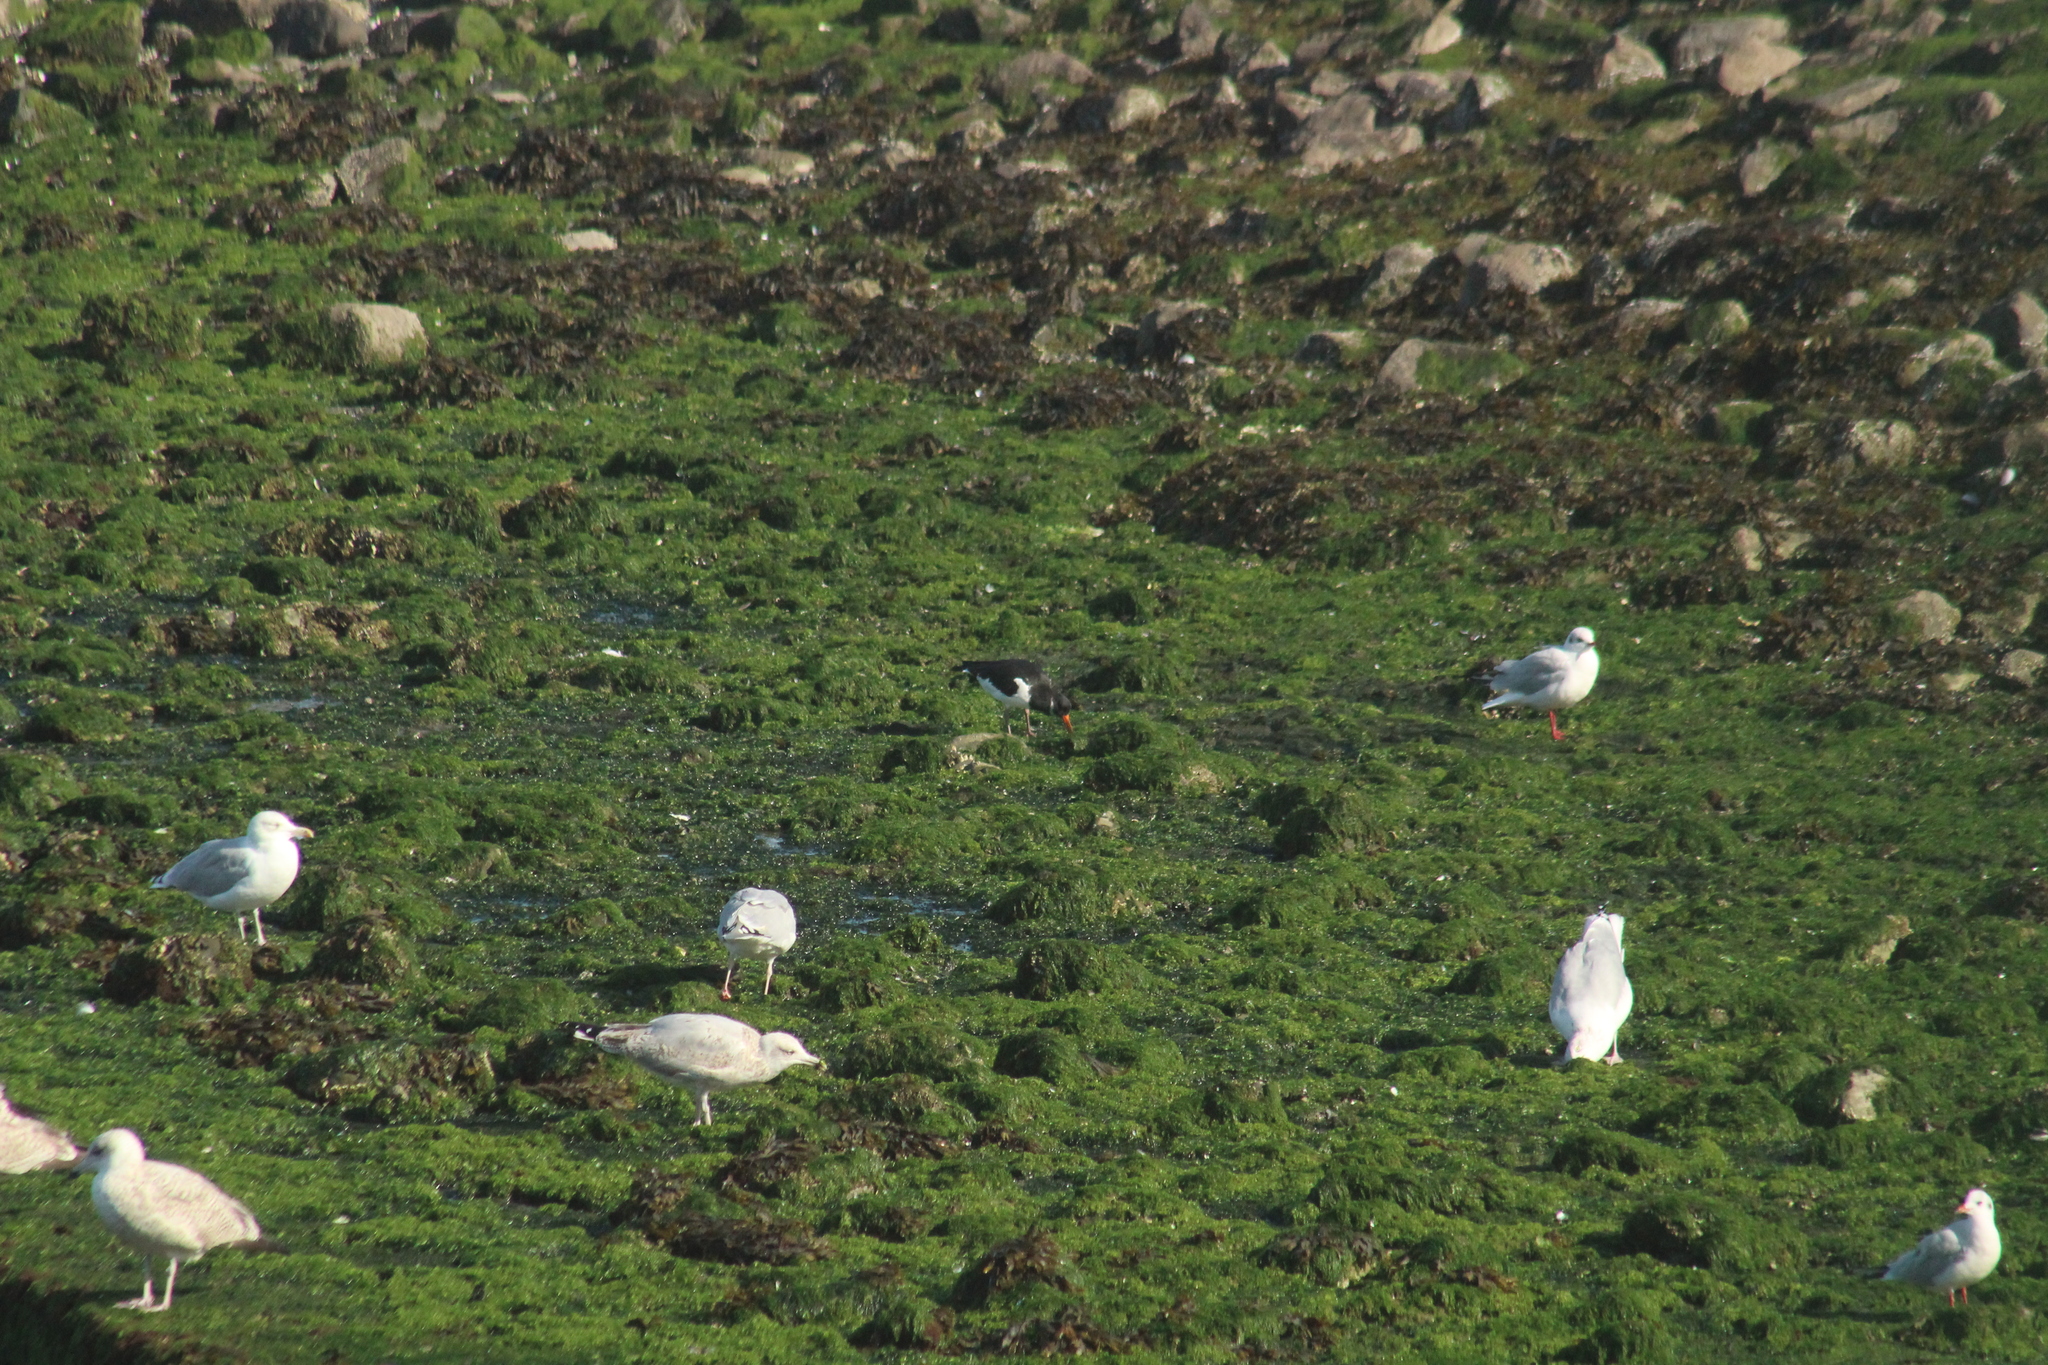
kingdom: Animalia
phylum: Chordata
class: Aves
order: Charadriiformes
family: Haematopodidae
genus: Haematopus
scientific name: Haematopus ostralegus
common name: Eurasian oystercatcher
